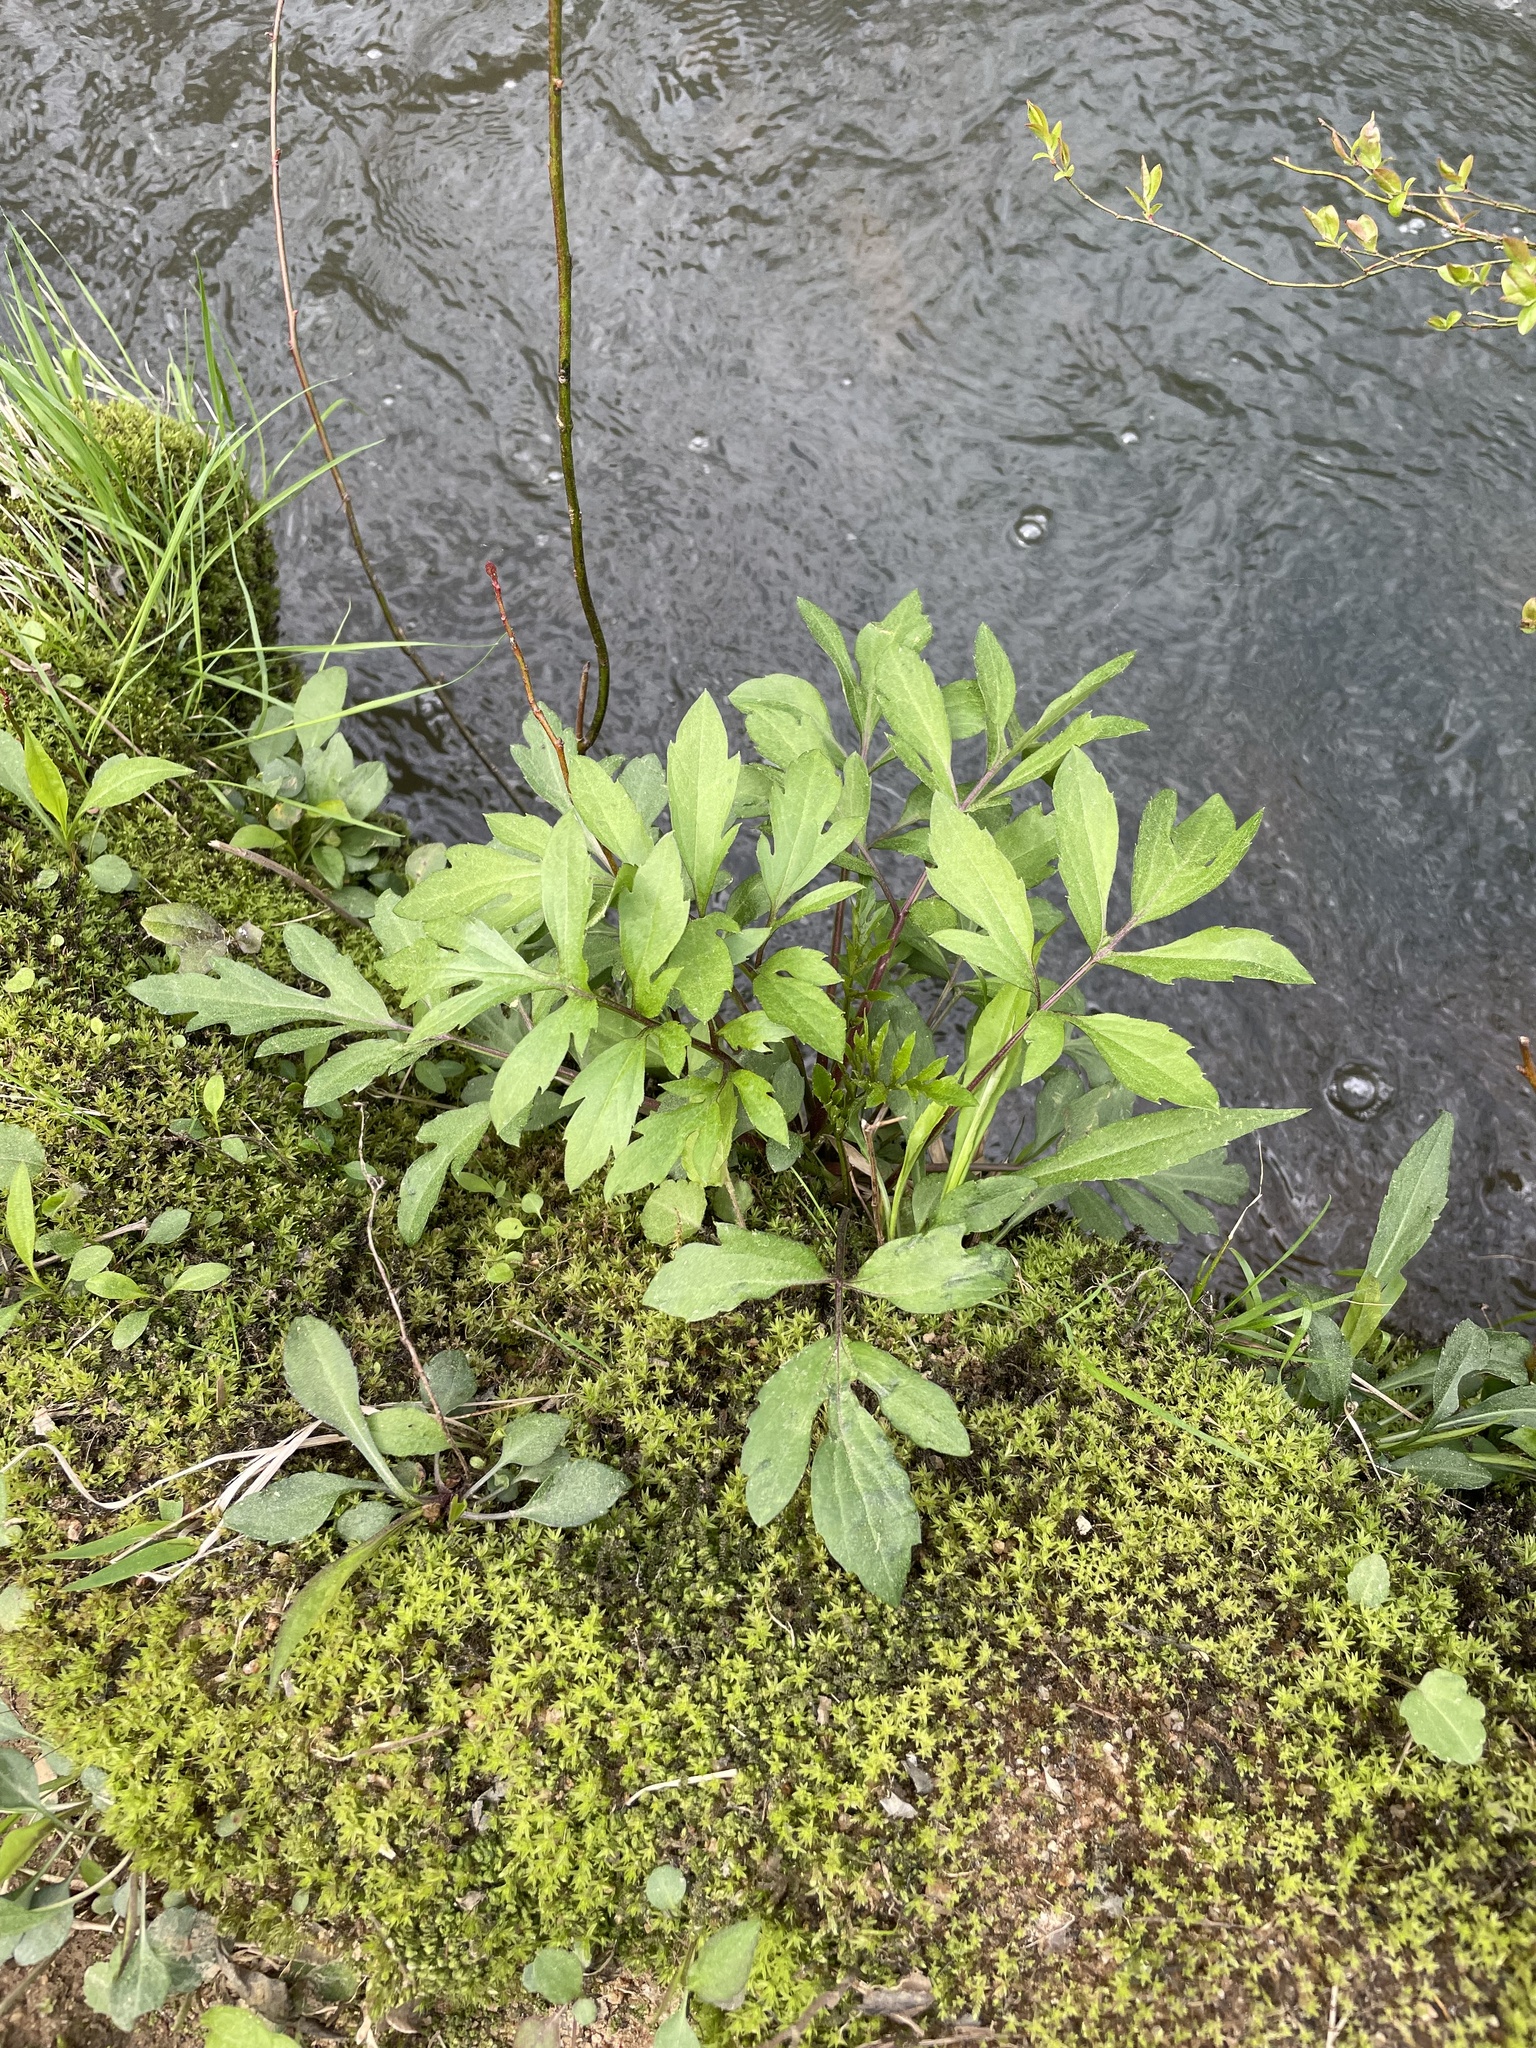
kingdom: Plantae
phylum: Tracheophyta
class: Magnoliopsida
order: Asterales
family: Asteraceae
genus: Rudbeckia
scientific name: Rudbeckia laciniata
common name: Coneflower
